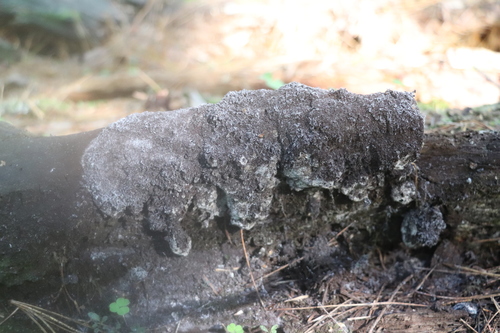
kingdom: Protozoa
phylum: Mycetozoa
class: Myxomycetes
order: Physarales
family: Physaraceae
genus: Fuligo
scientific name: Fuligo septica
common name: Dog vomit slime mold
